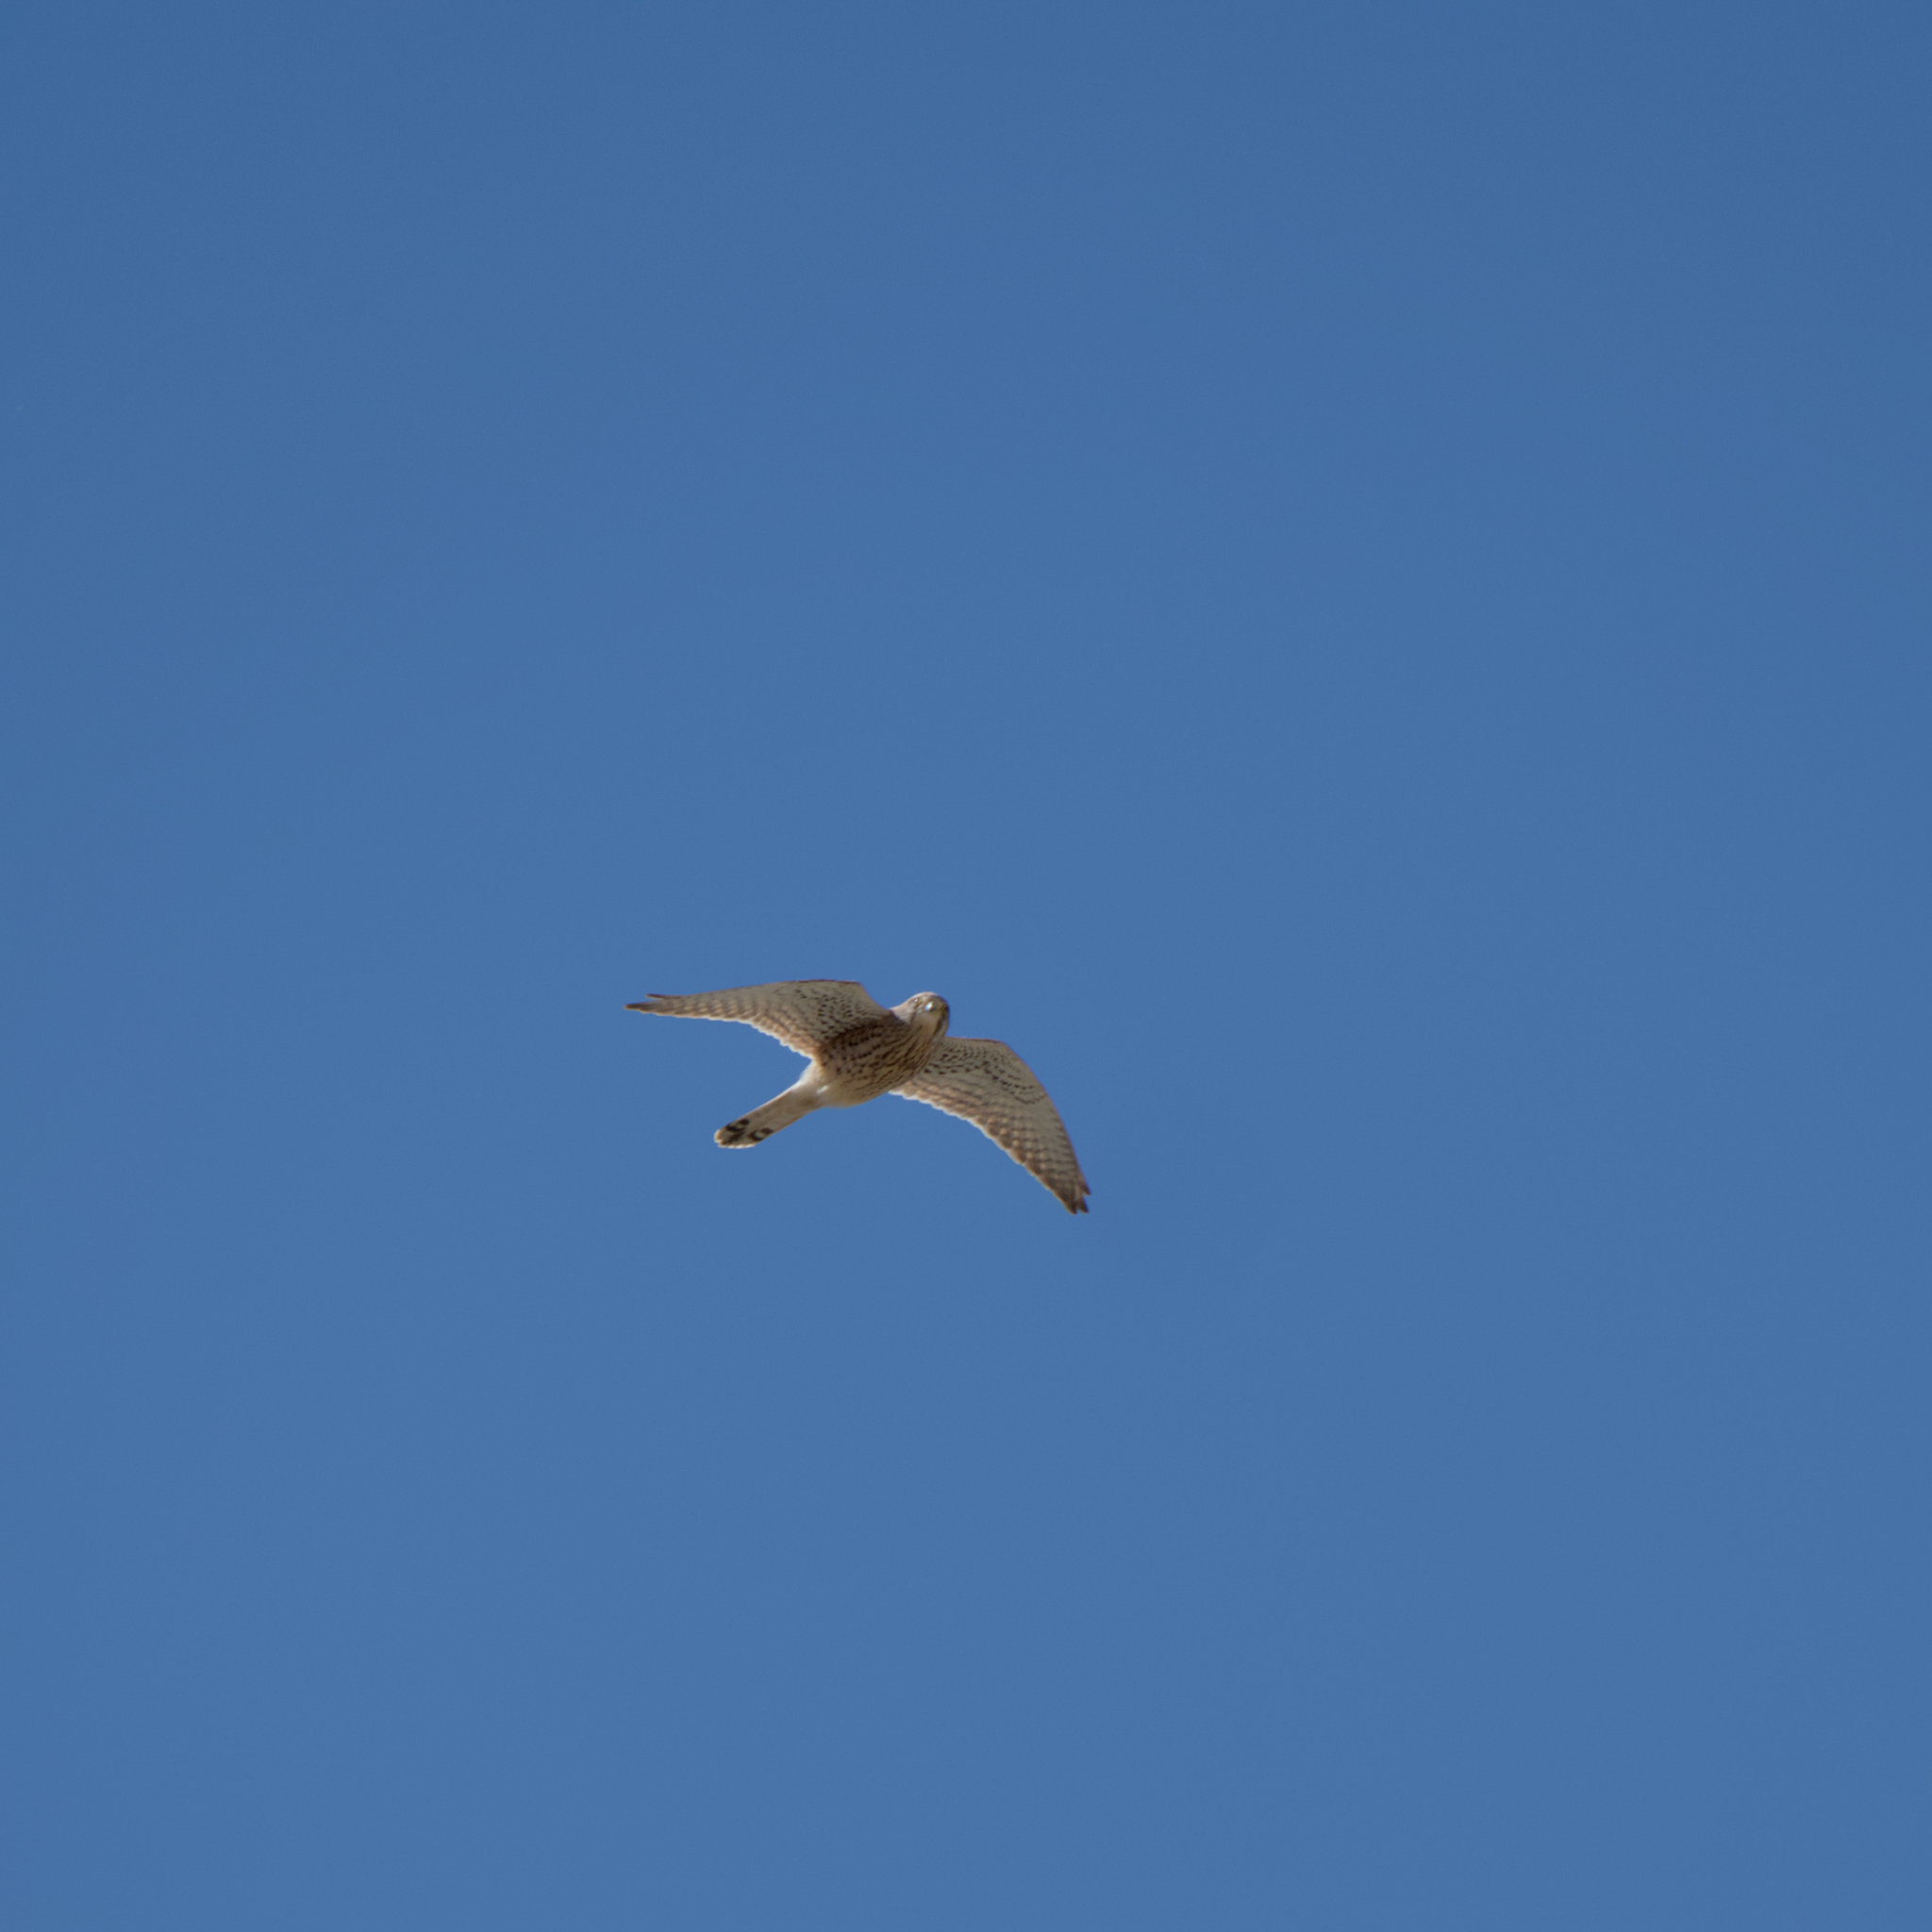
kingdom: Animalia
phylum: Chordata
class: Aves
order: Falconiformes
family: Falconidae
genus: Falco
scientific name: Falco tinnunculus
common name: Common kestrel
